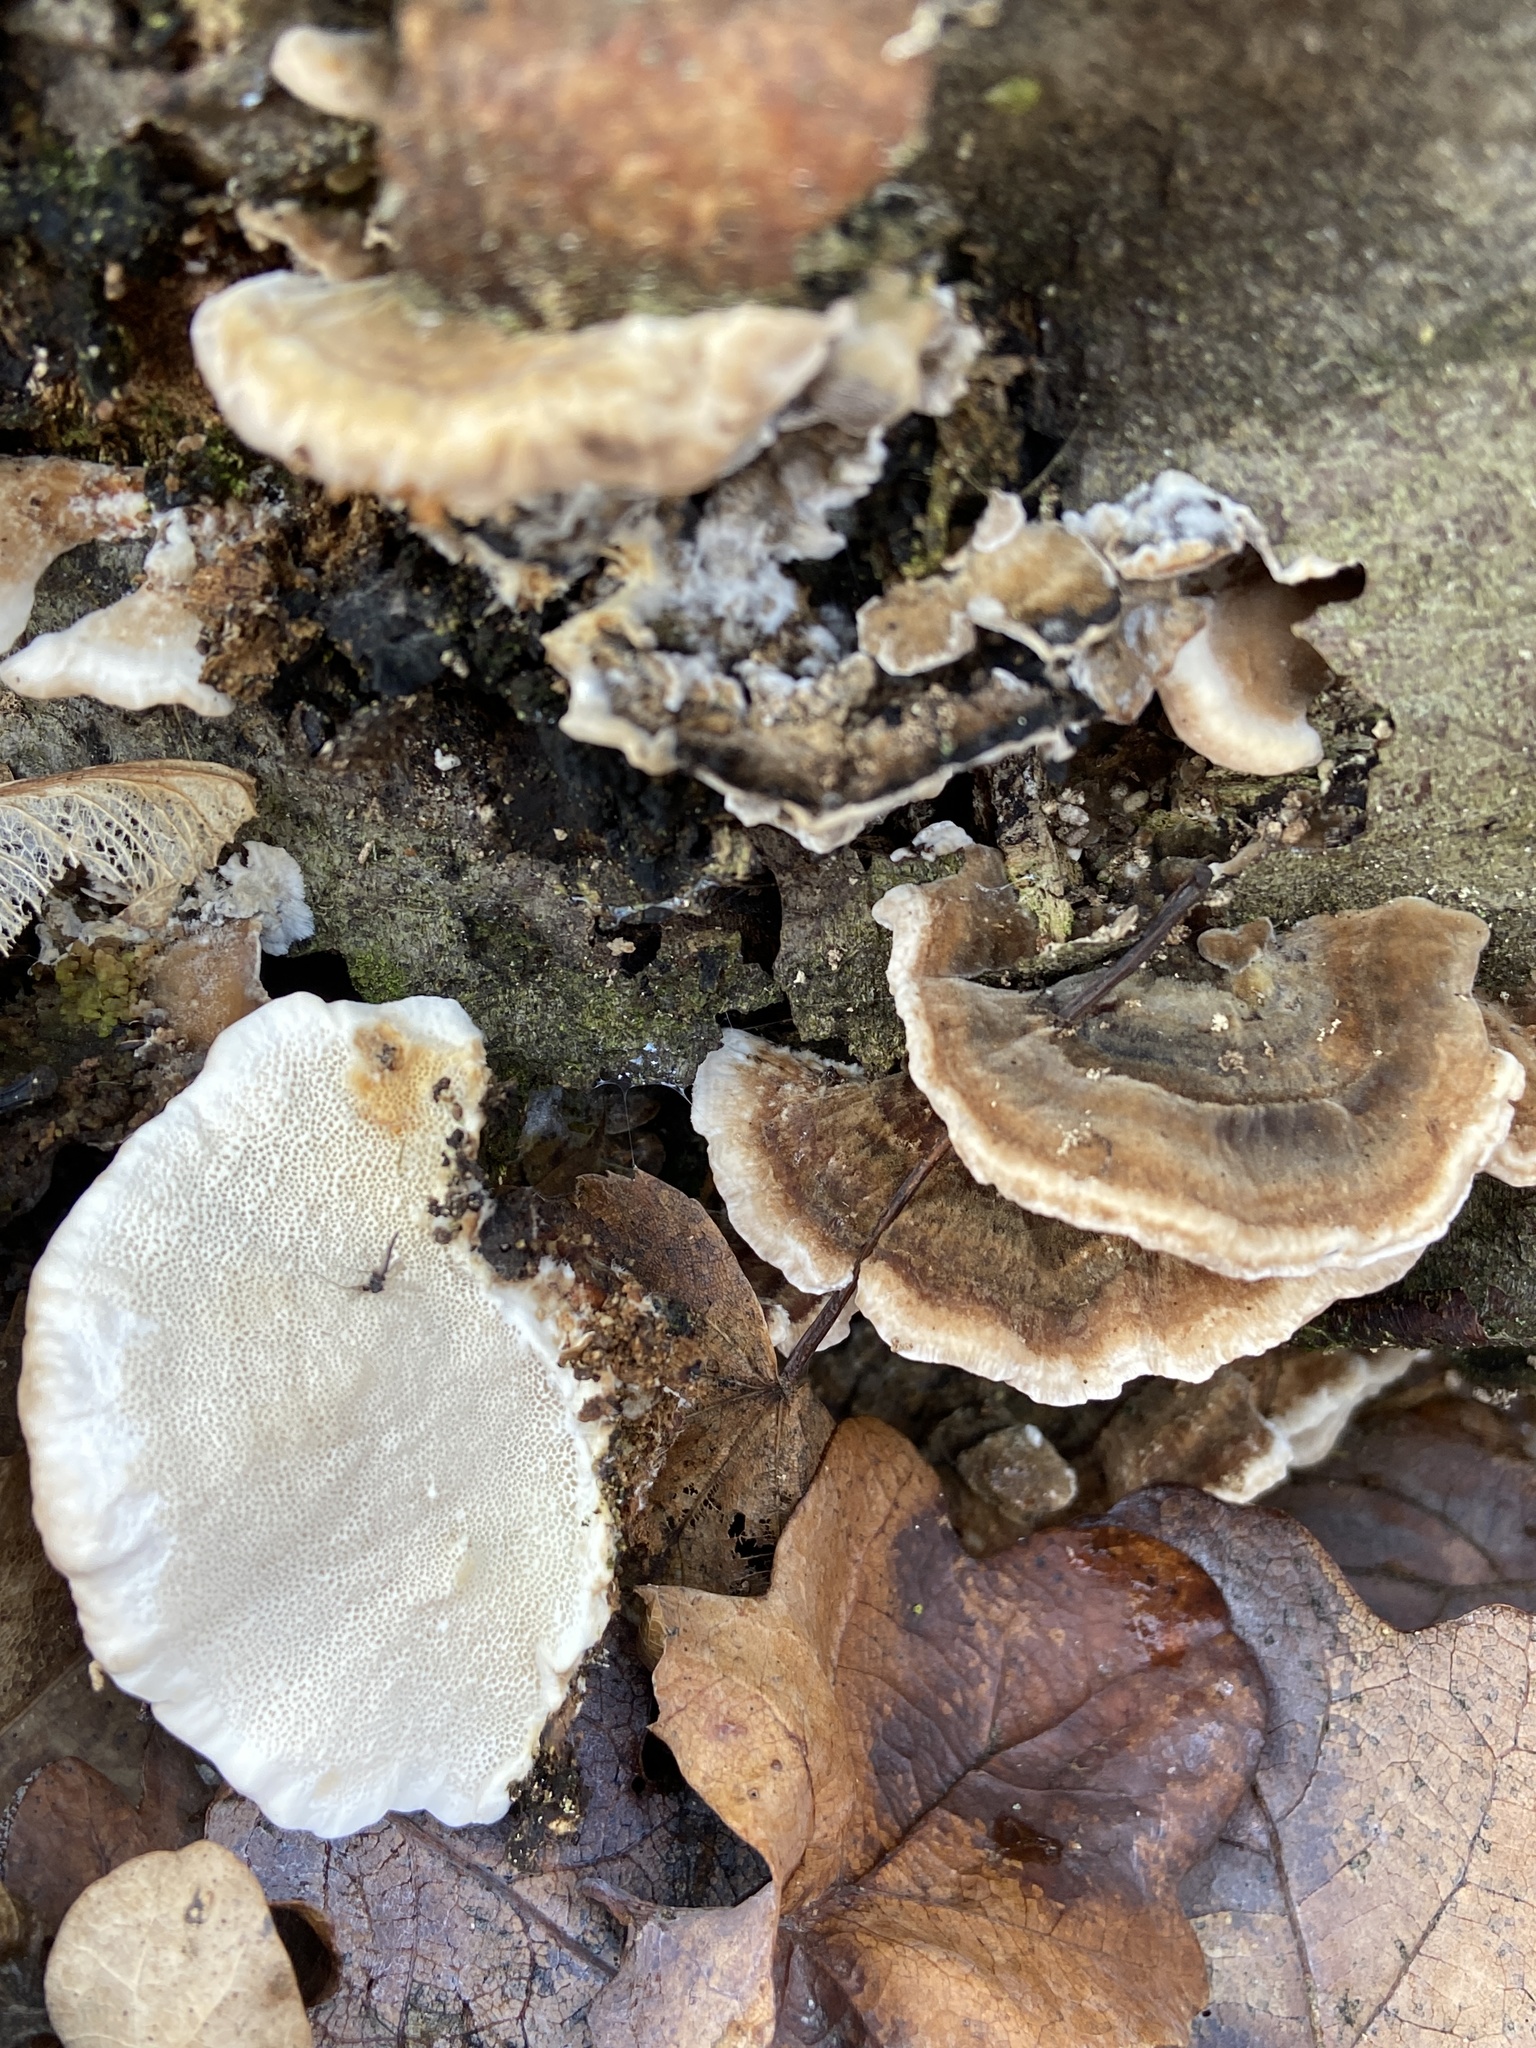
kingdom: Fungi
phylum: Basidiomycota
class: Agaricomycetes
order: Polyporales
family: Polyporaceae
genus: Trametes
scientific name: Trametes versicolor
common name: Turkeytail
